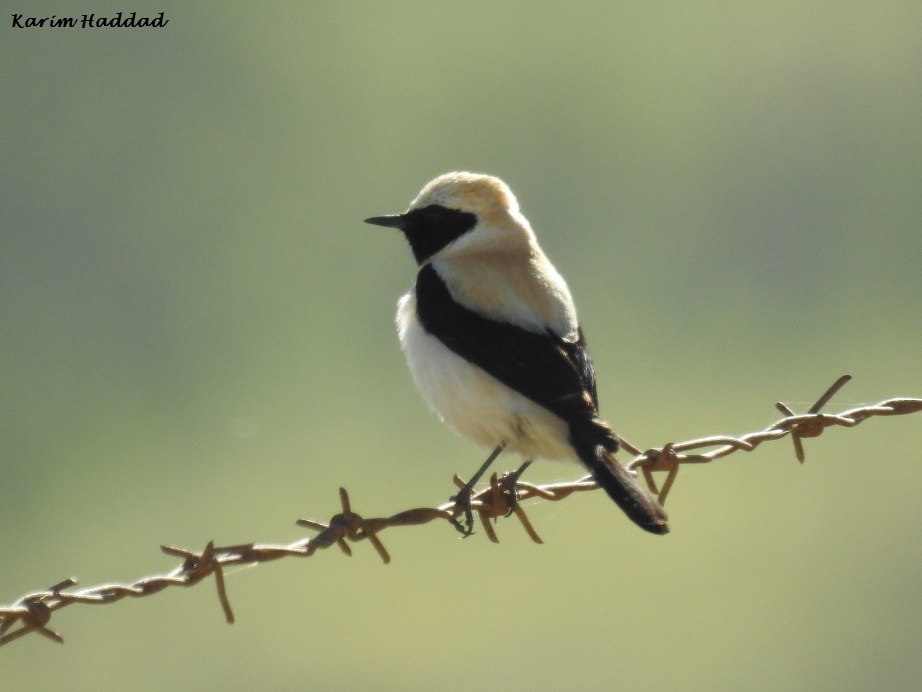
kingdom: Animalia
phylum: Chordata
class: Aves
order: Passeriformes
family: Muscicapidae
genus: Oenanthe
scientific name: Oenanthe hispanica
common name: Black-eared wheatear
